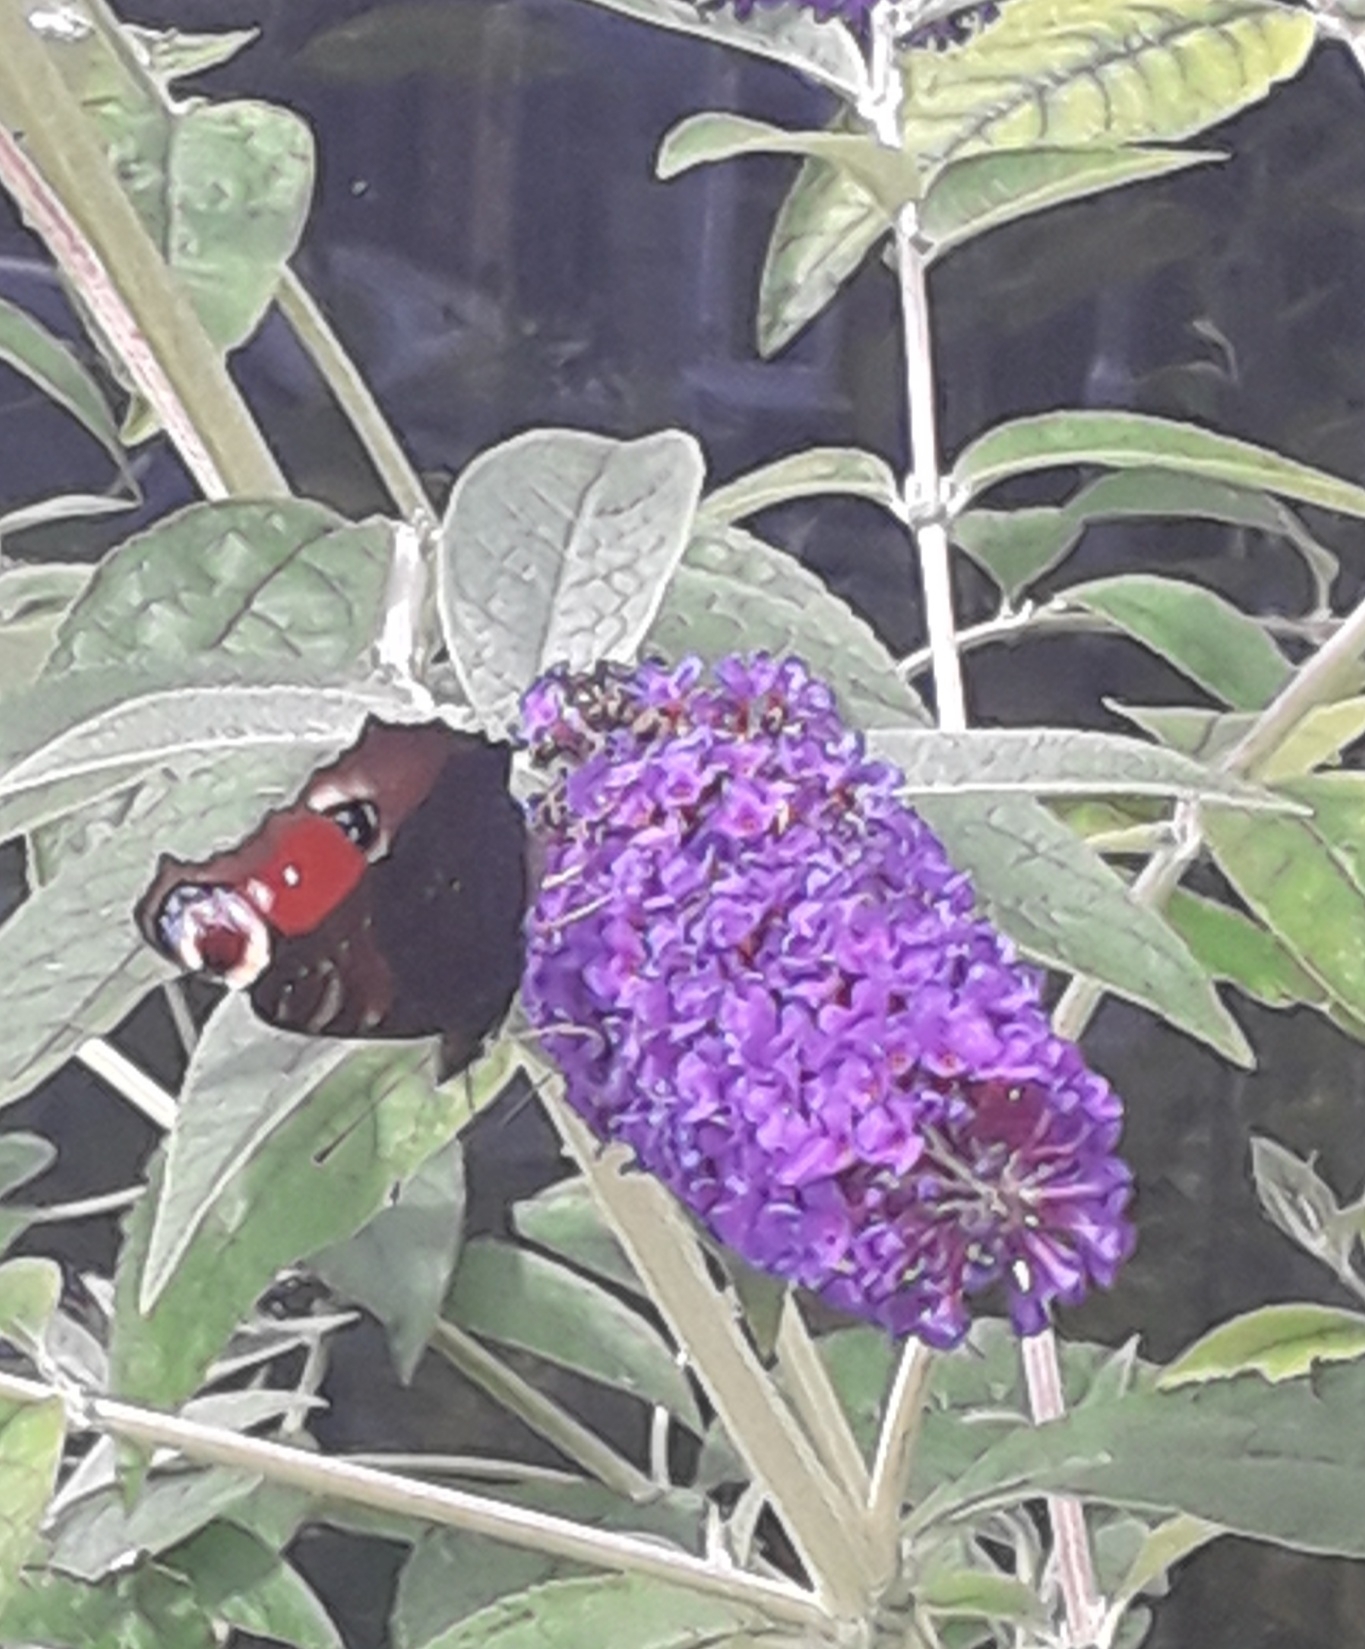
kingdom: Animalia
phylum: Arthropoda
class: Insecta
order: Lepidoptera
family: Nymphalidae
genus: Aglais
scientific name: Aglais io
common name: Peacock
